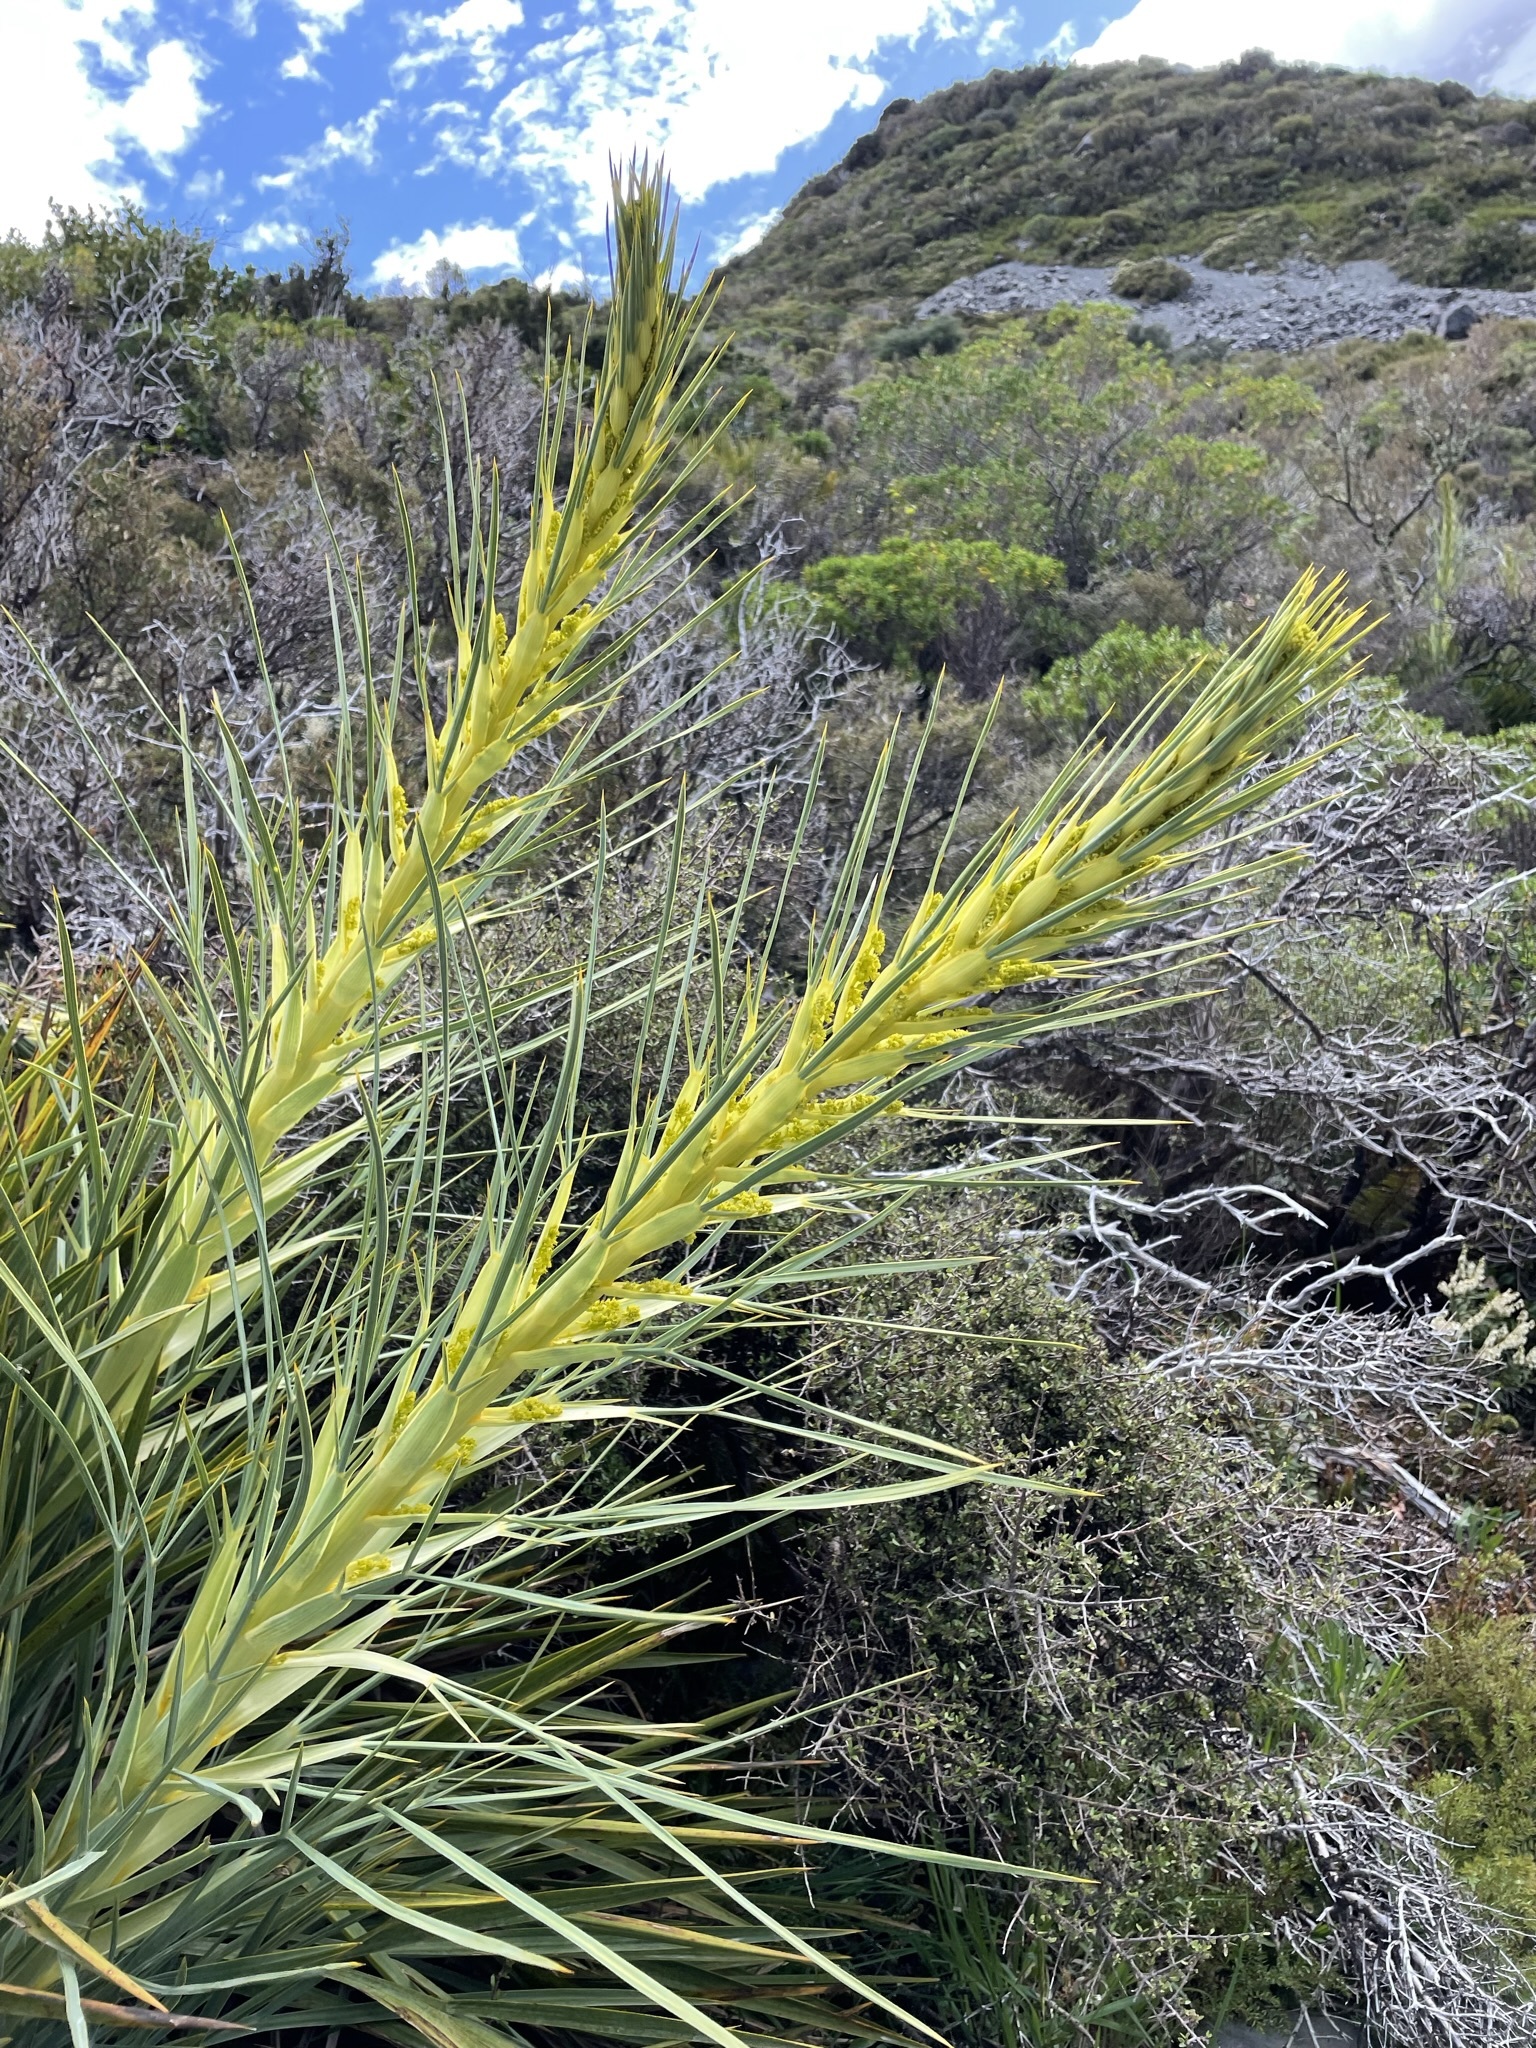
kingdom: Plantae
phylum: Tracheophyta
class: Magnoliopsida
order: Apiales
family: Apiaceae
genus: Aciphylla
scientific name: Aciphylla scott-thomsonii
